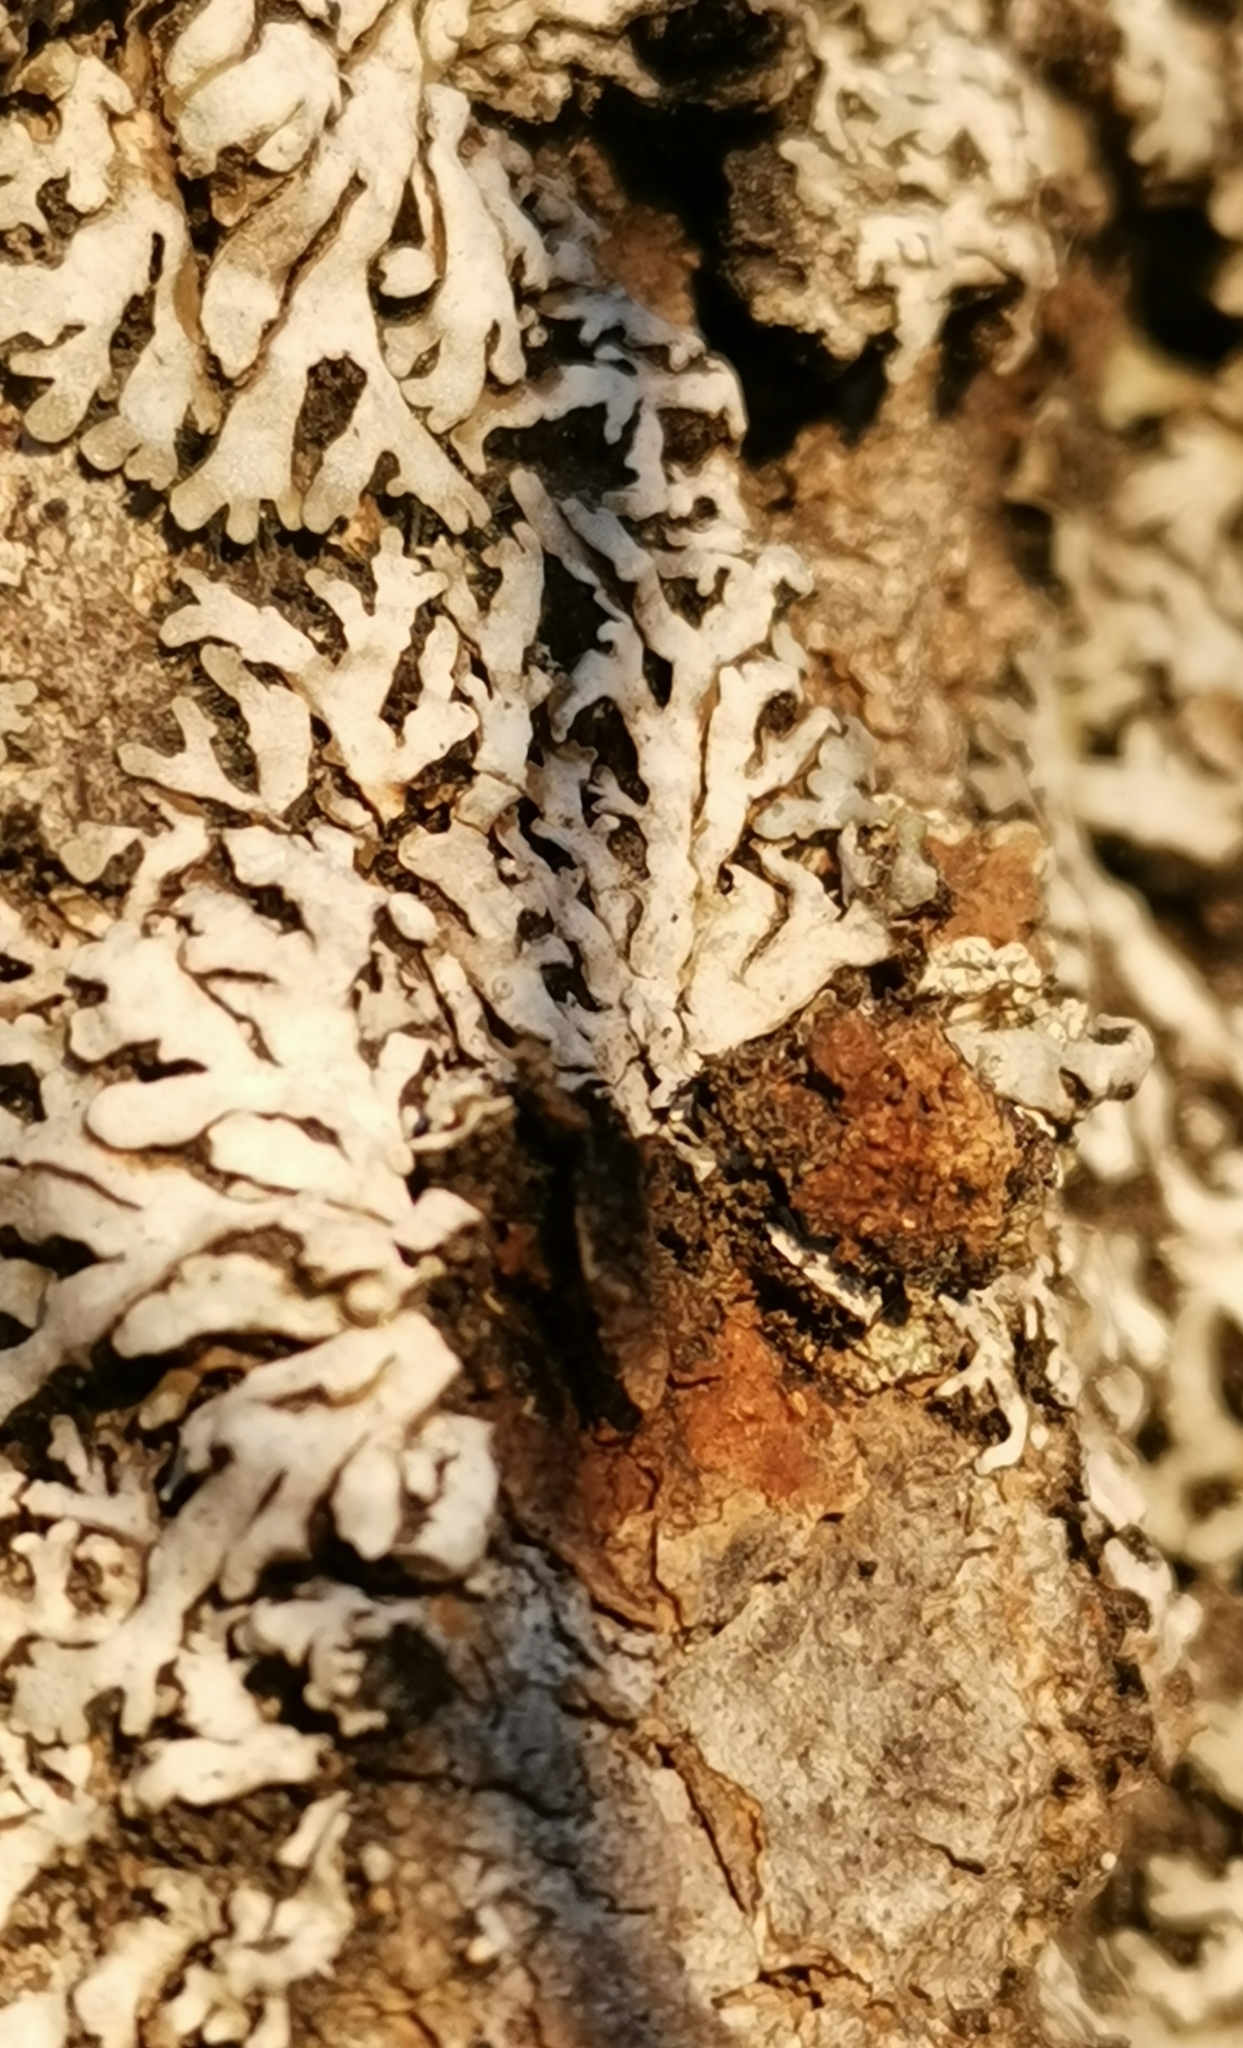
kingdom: Fungi
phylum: Ascomycota
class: Lecanoromycetes
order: Caliciales
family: Physciaceae
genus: Physconia
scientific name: Physconia distorta
